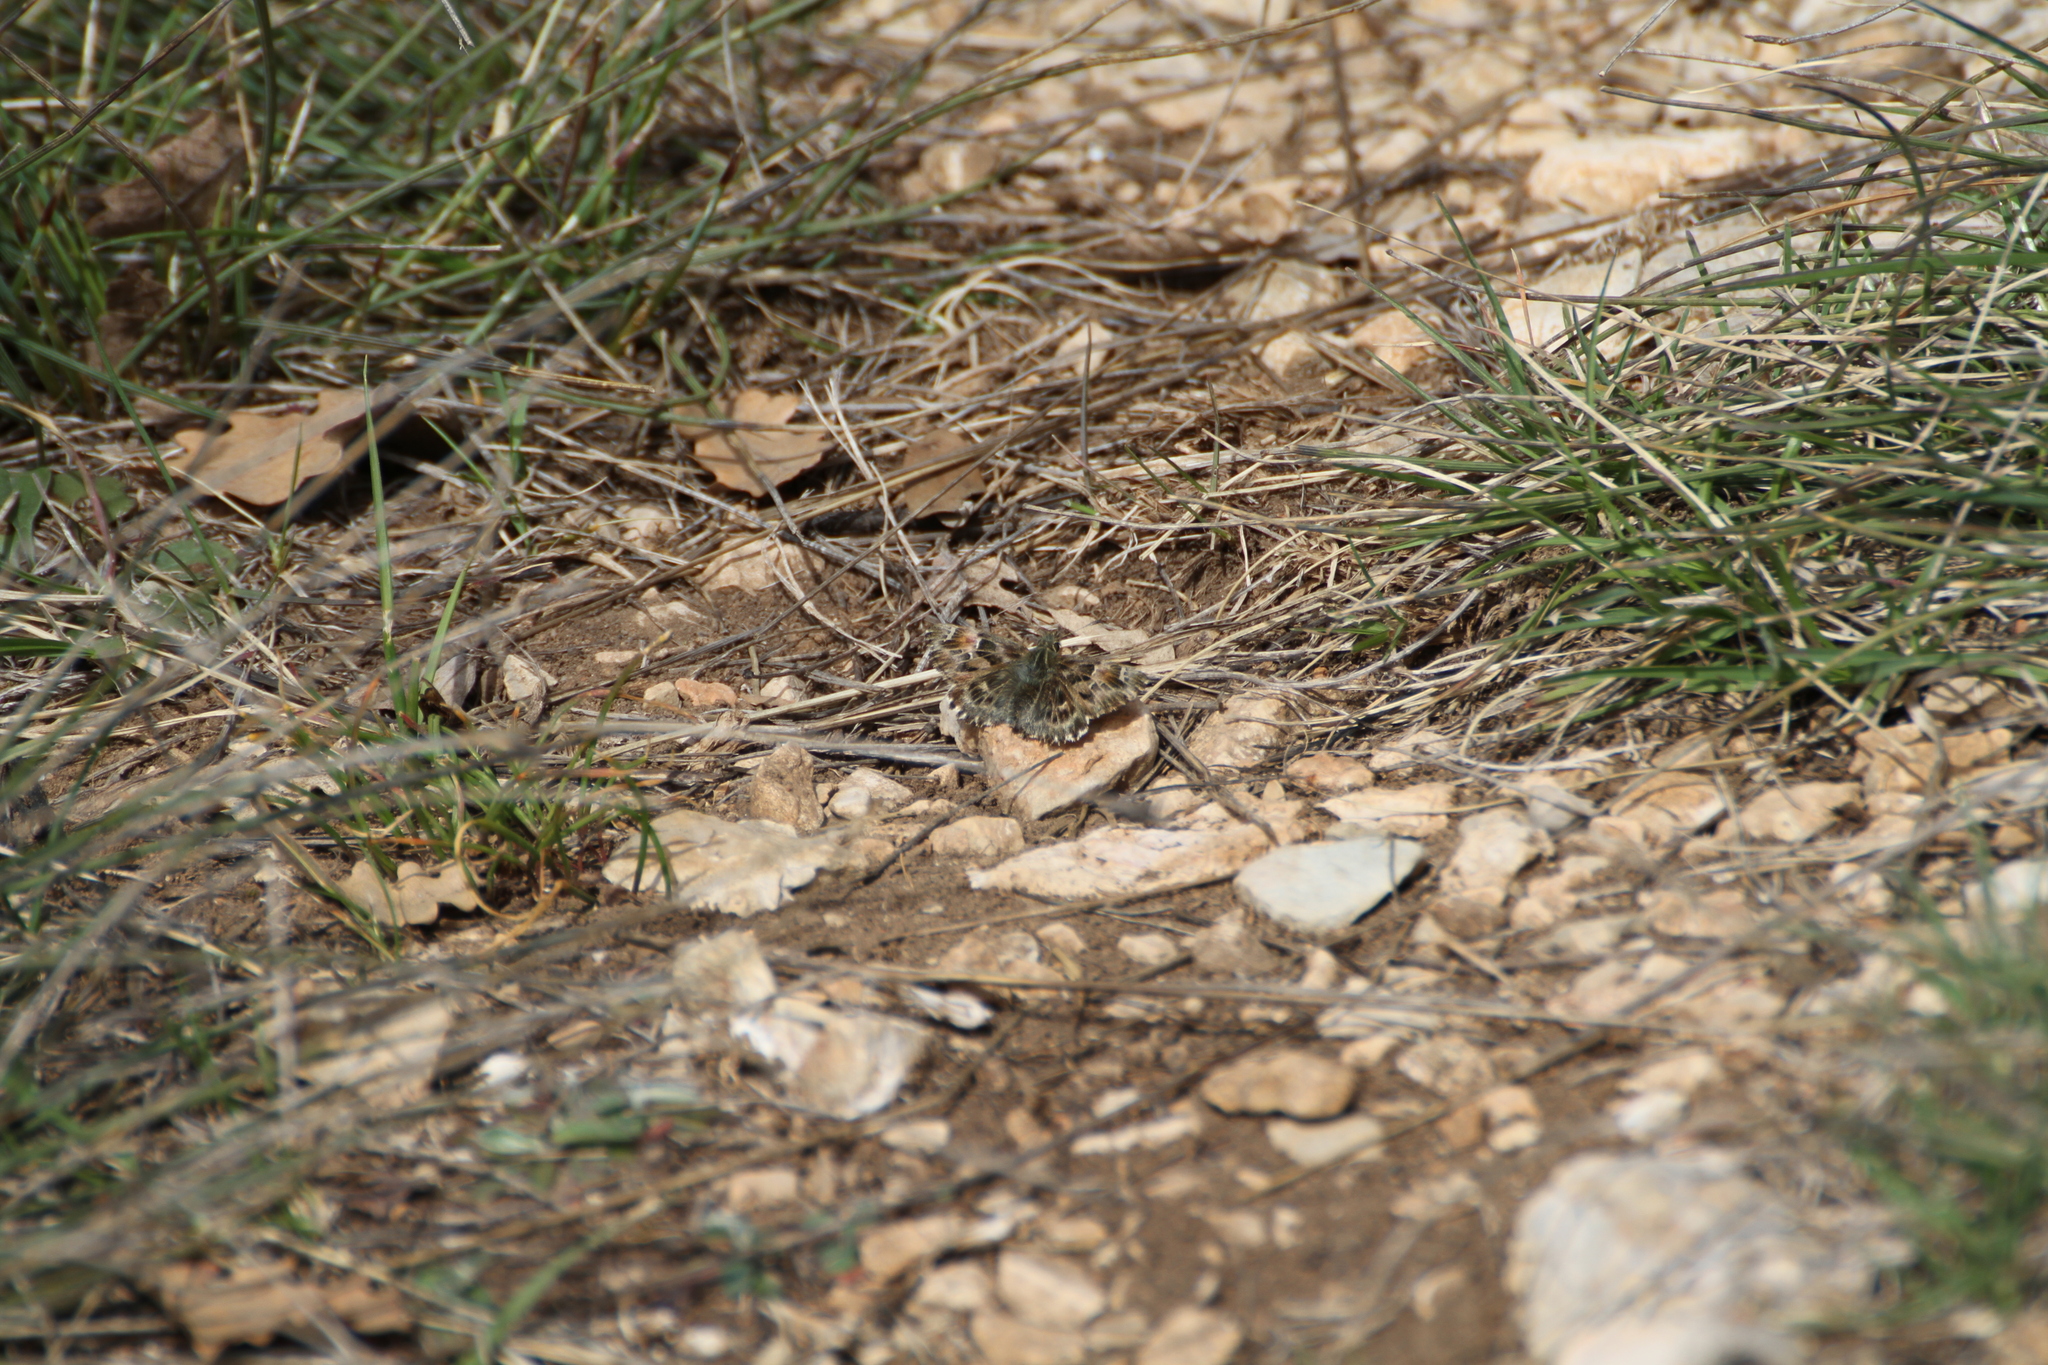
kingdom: Animalia
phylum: Arthropoda
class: Insecta
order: Lepidoptera
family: Hesperiidae
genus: Carcharodus
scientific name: Carcharodus alceae
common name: Mallow skipper
